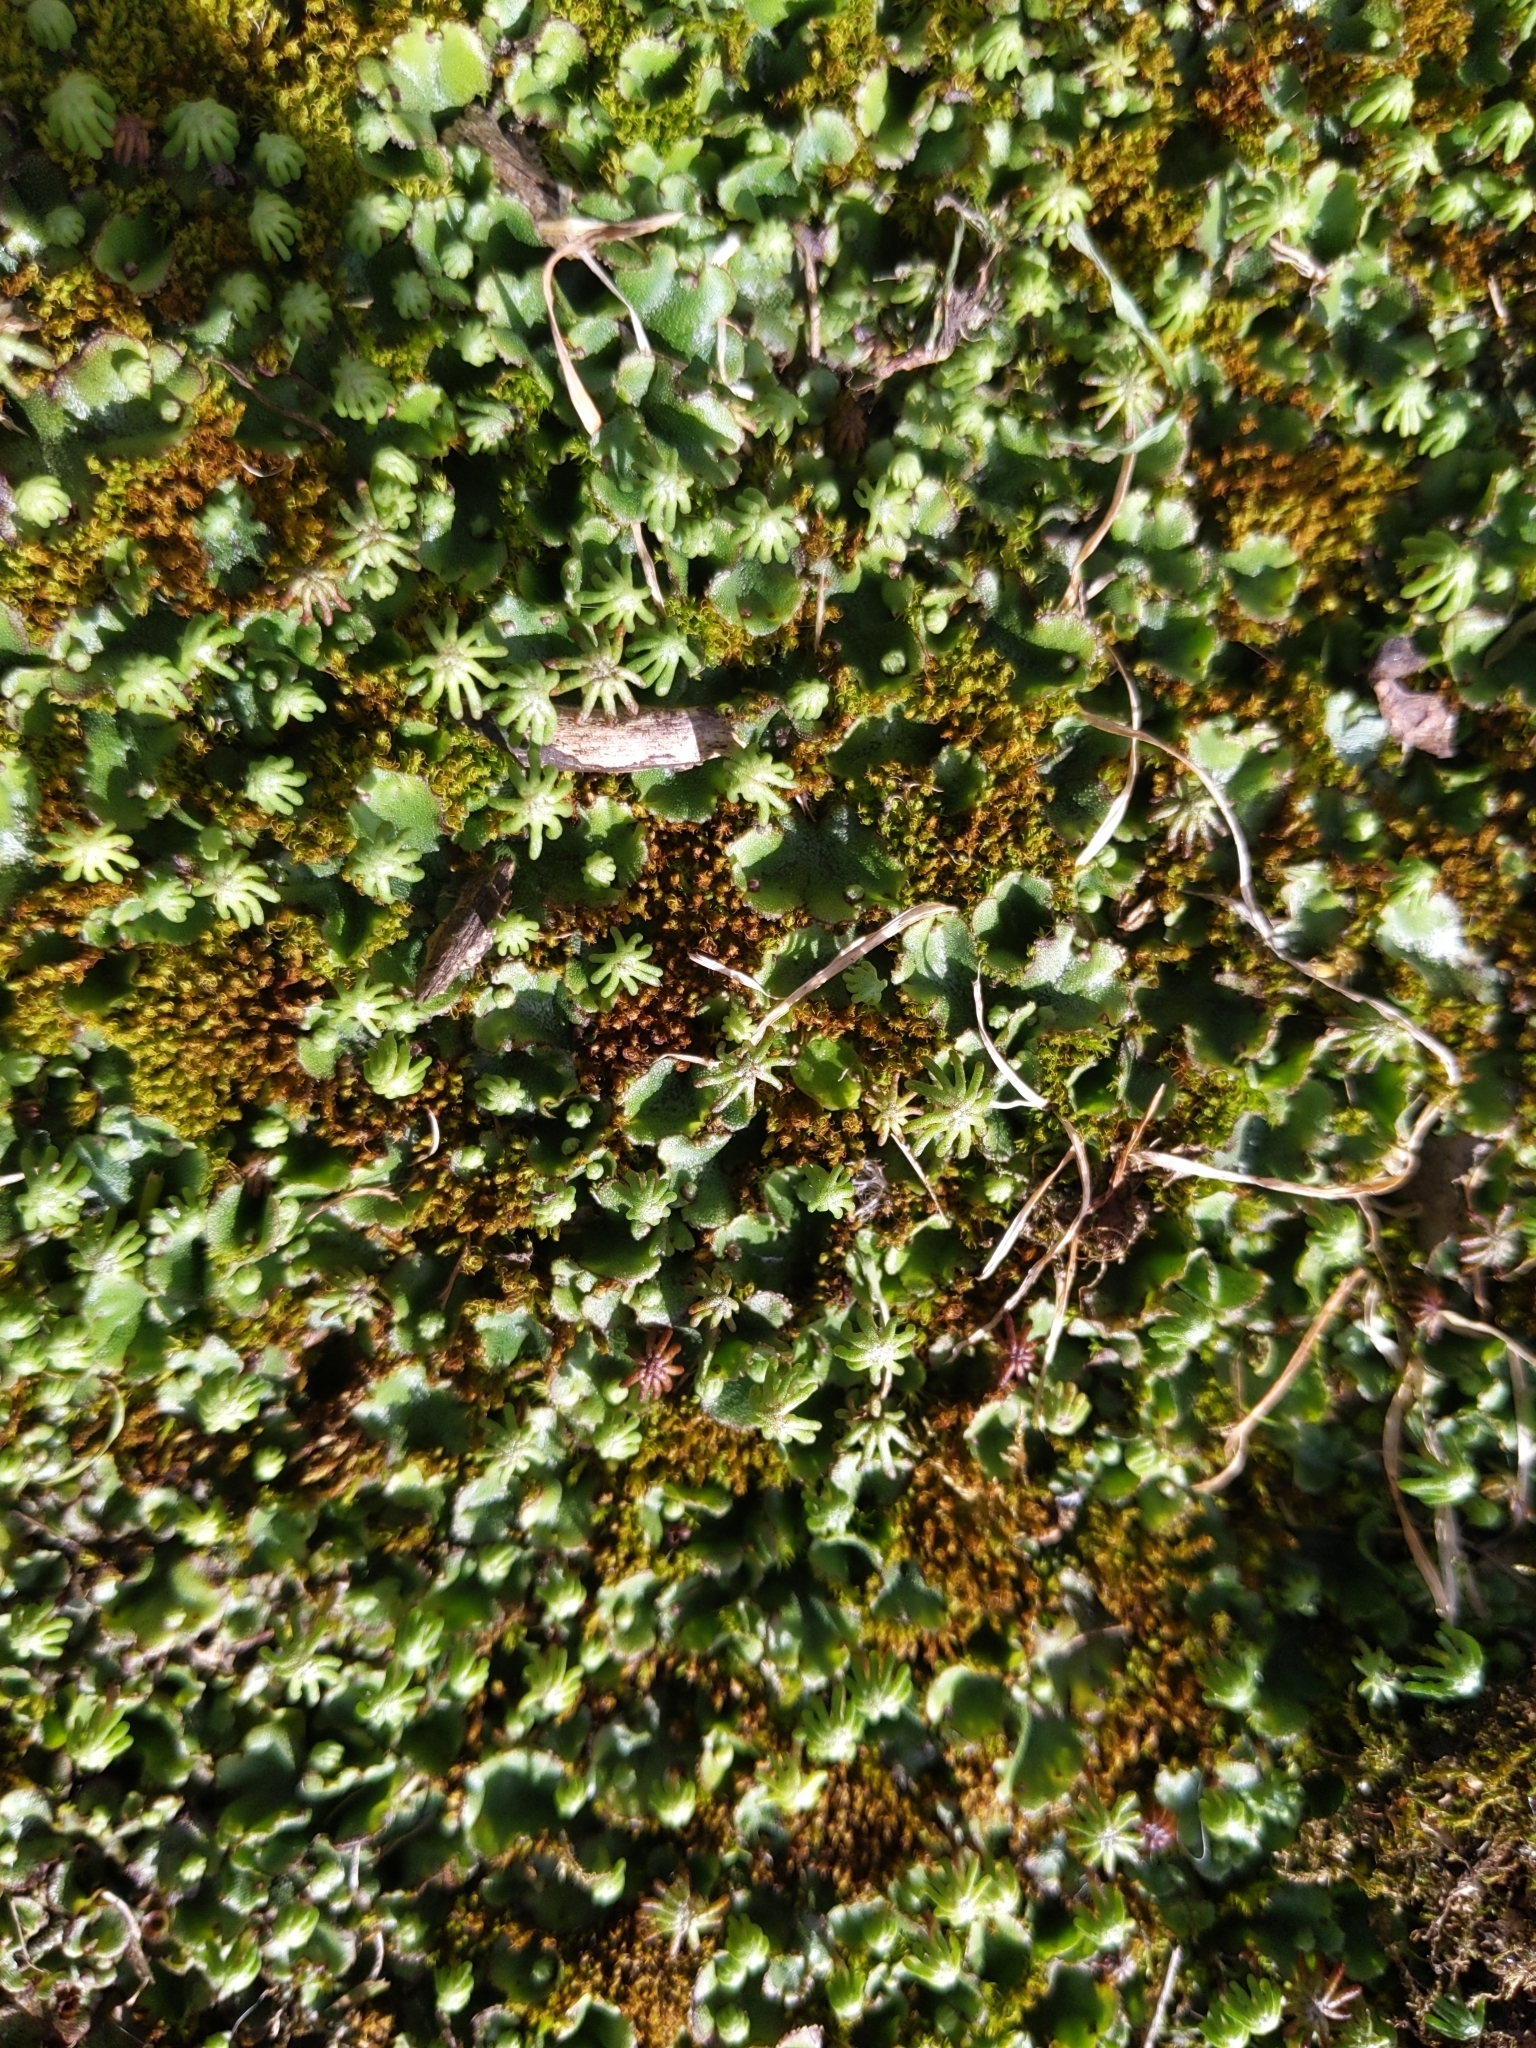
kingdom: Plantae
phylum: Marchantiophyta
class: Marchantiopsida
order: Marchantiales
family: Marchantiaceae
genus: Marchantia
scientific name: Marchantia polymorpha
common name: Common liverwort
